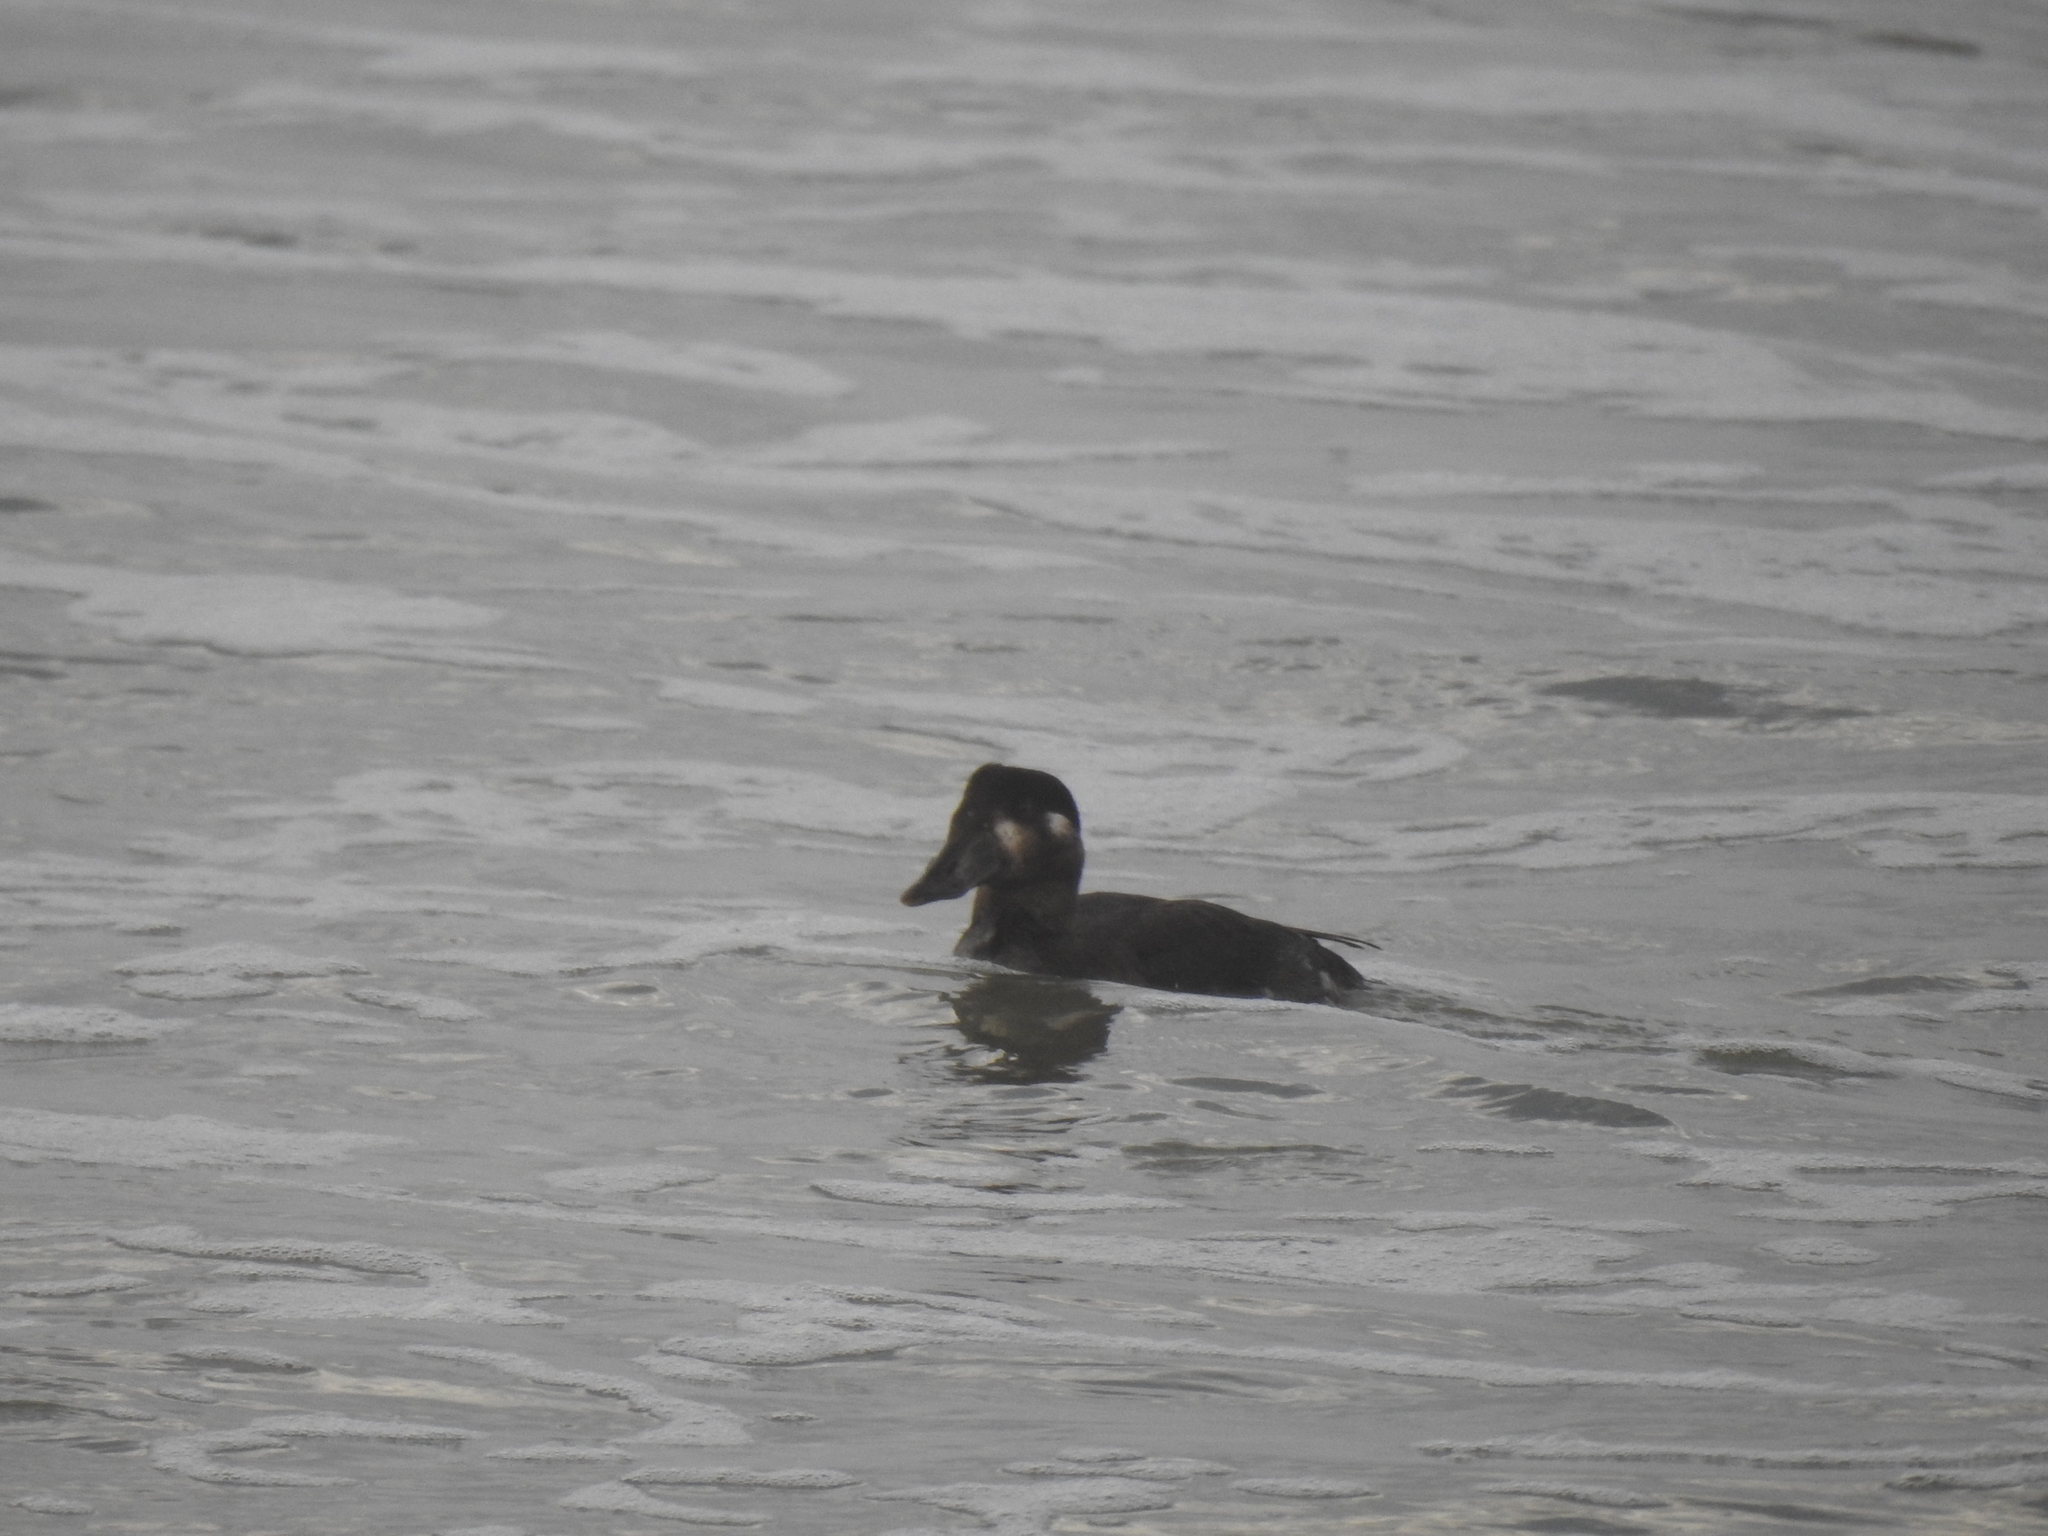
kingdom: Animalia
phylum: Chordata
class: Aves
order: Anseriformes
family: Anatidae
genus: Melanitta
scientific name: Melanitta perspicillata
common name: Surf scoter
